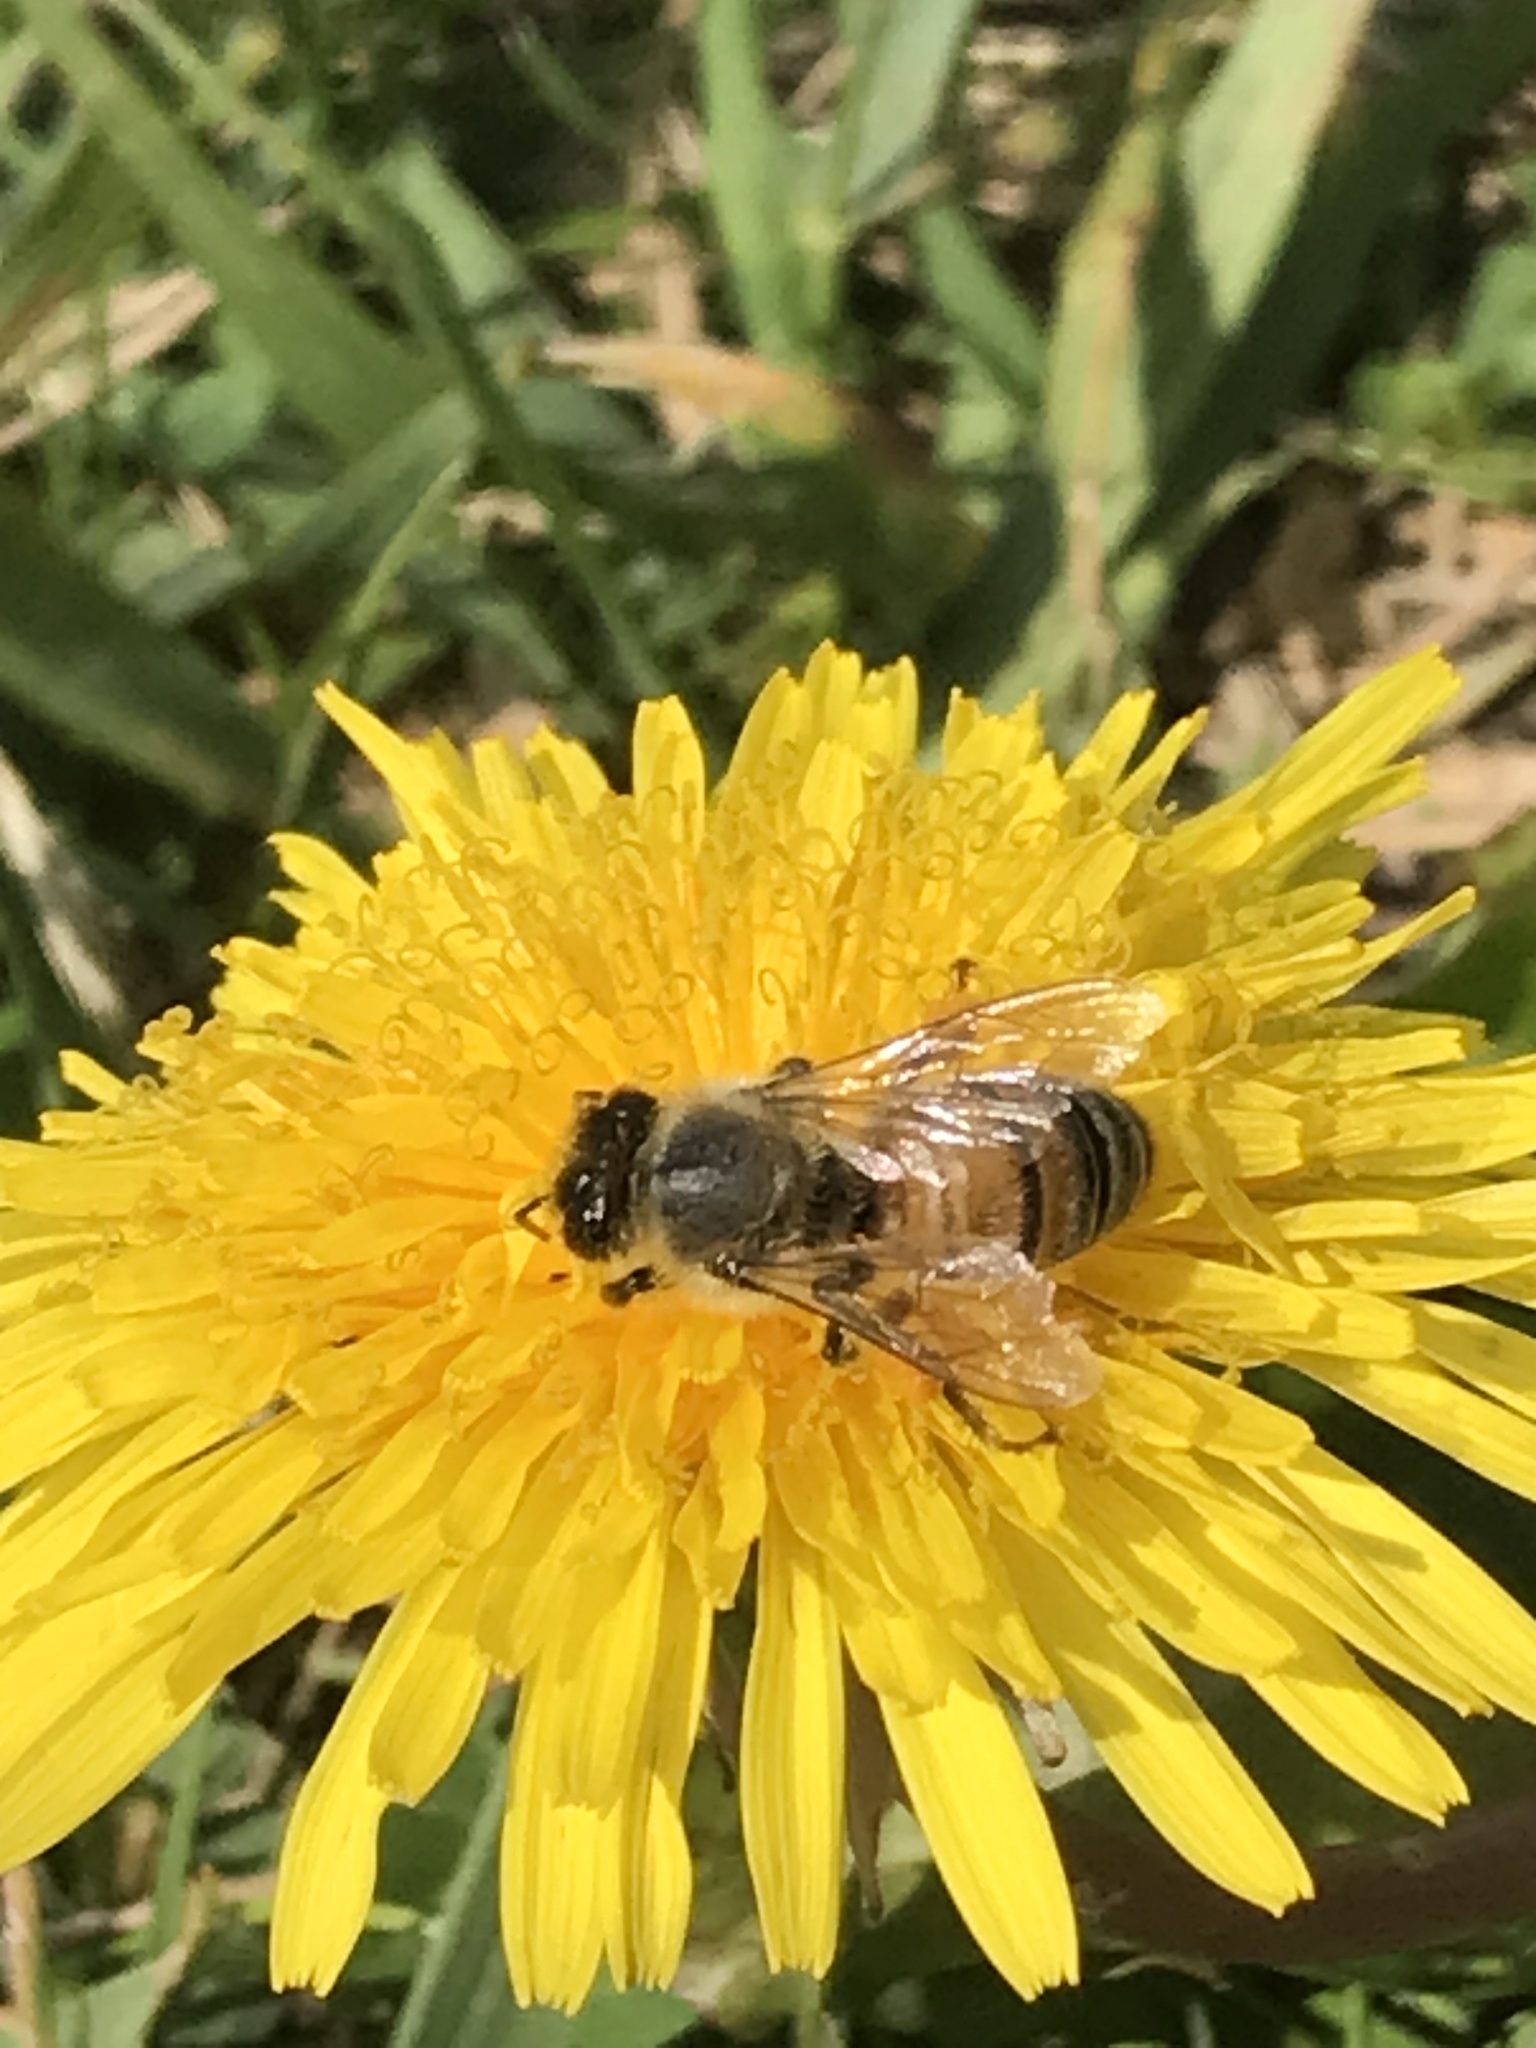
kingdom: Animalia
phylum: Arthropoda
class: Insecta
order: Hymenoptera
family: Apidae
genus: Apis
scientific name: Apis mellifera
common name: Honey bee
